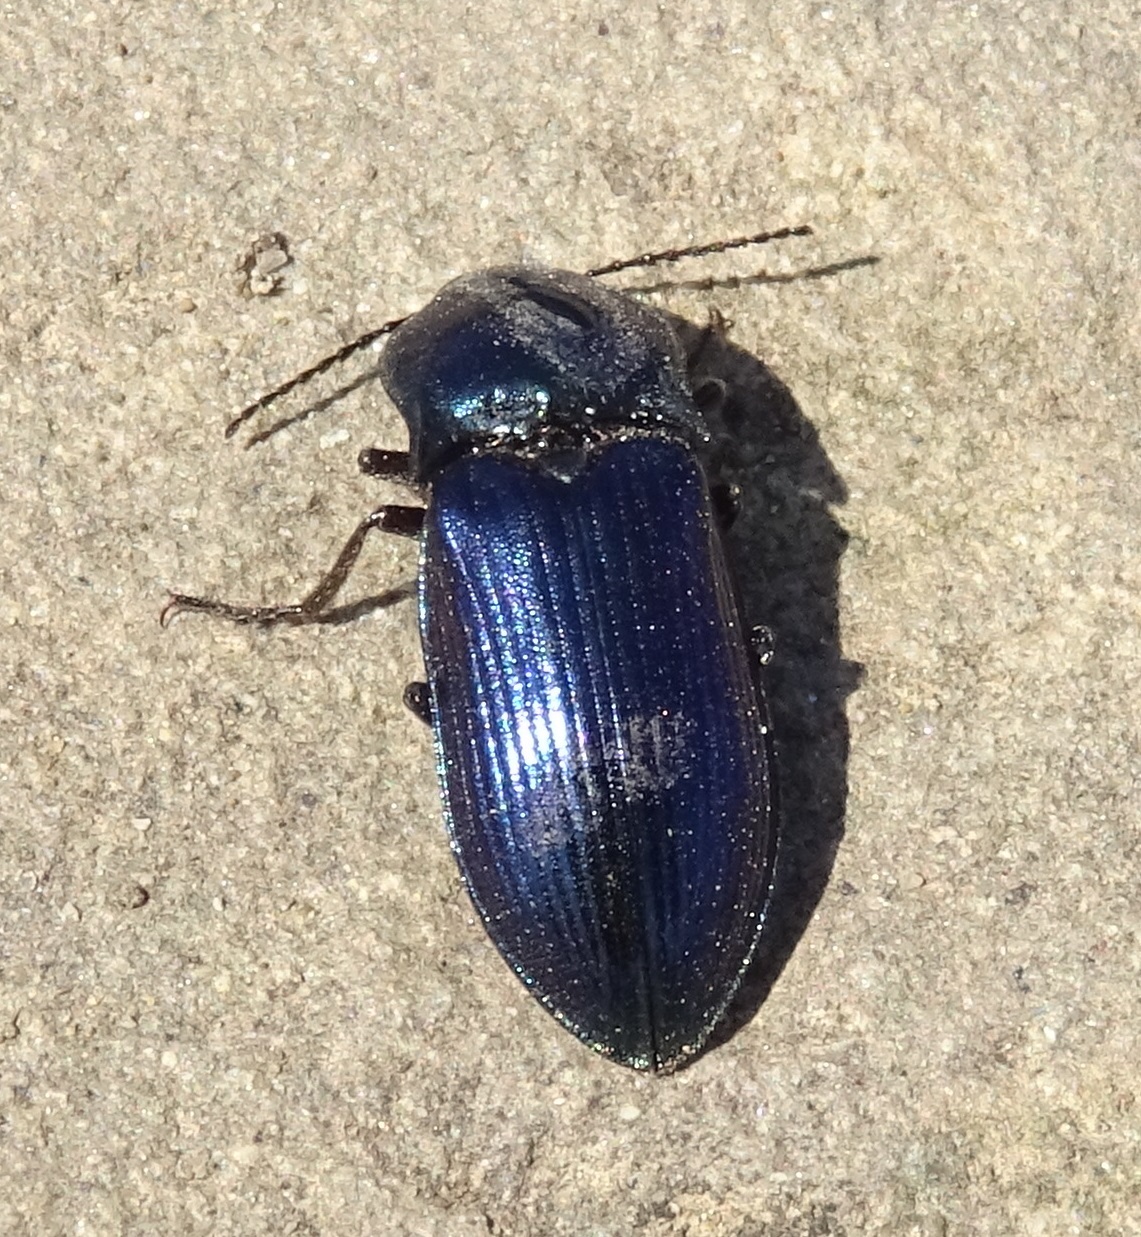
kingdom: Animalia
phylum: Arthropoda
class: Insecta
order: Coleoptera
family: Elateridae
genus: Selatosomus
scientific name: Selatosomus aeneus
